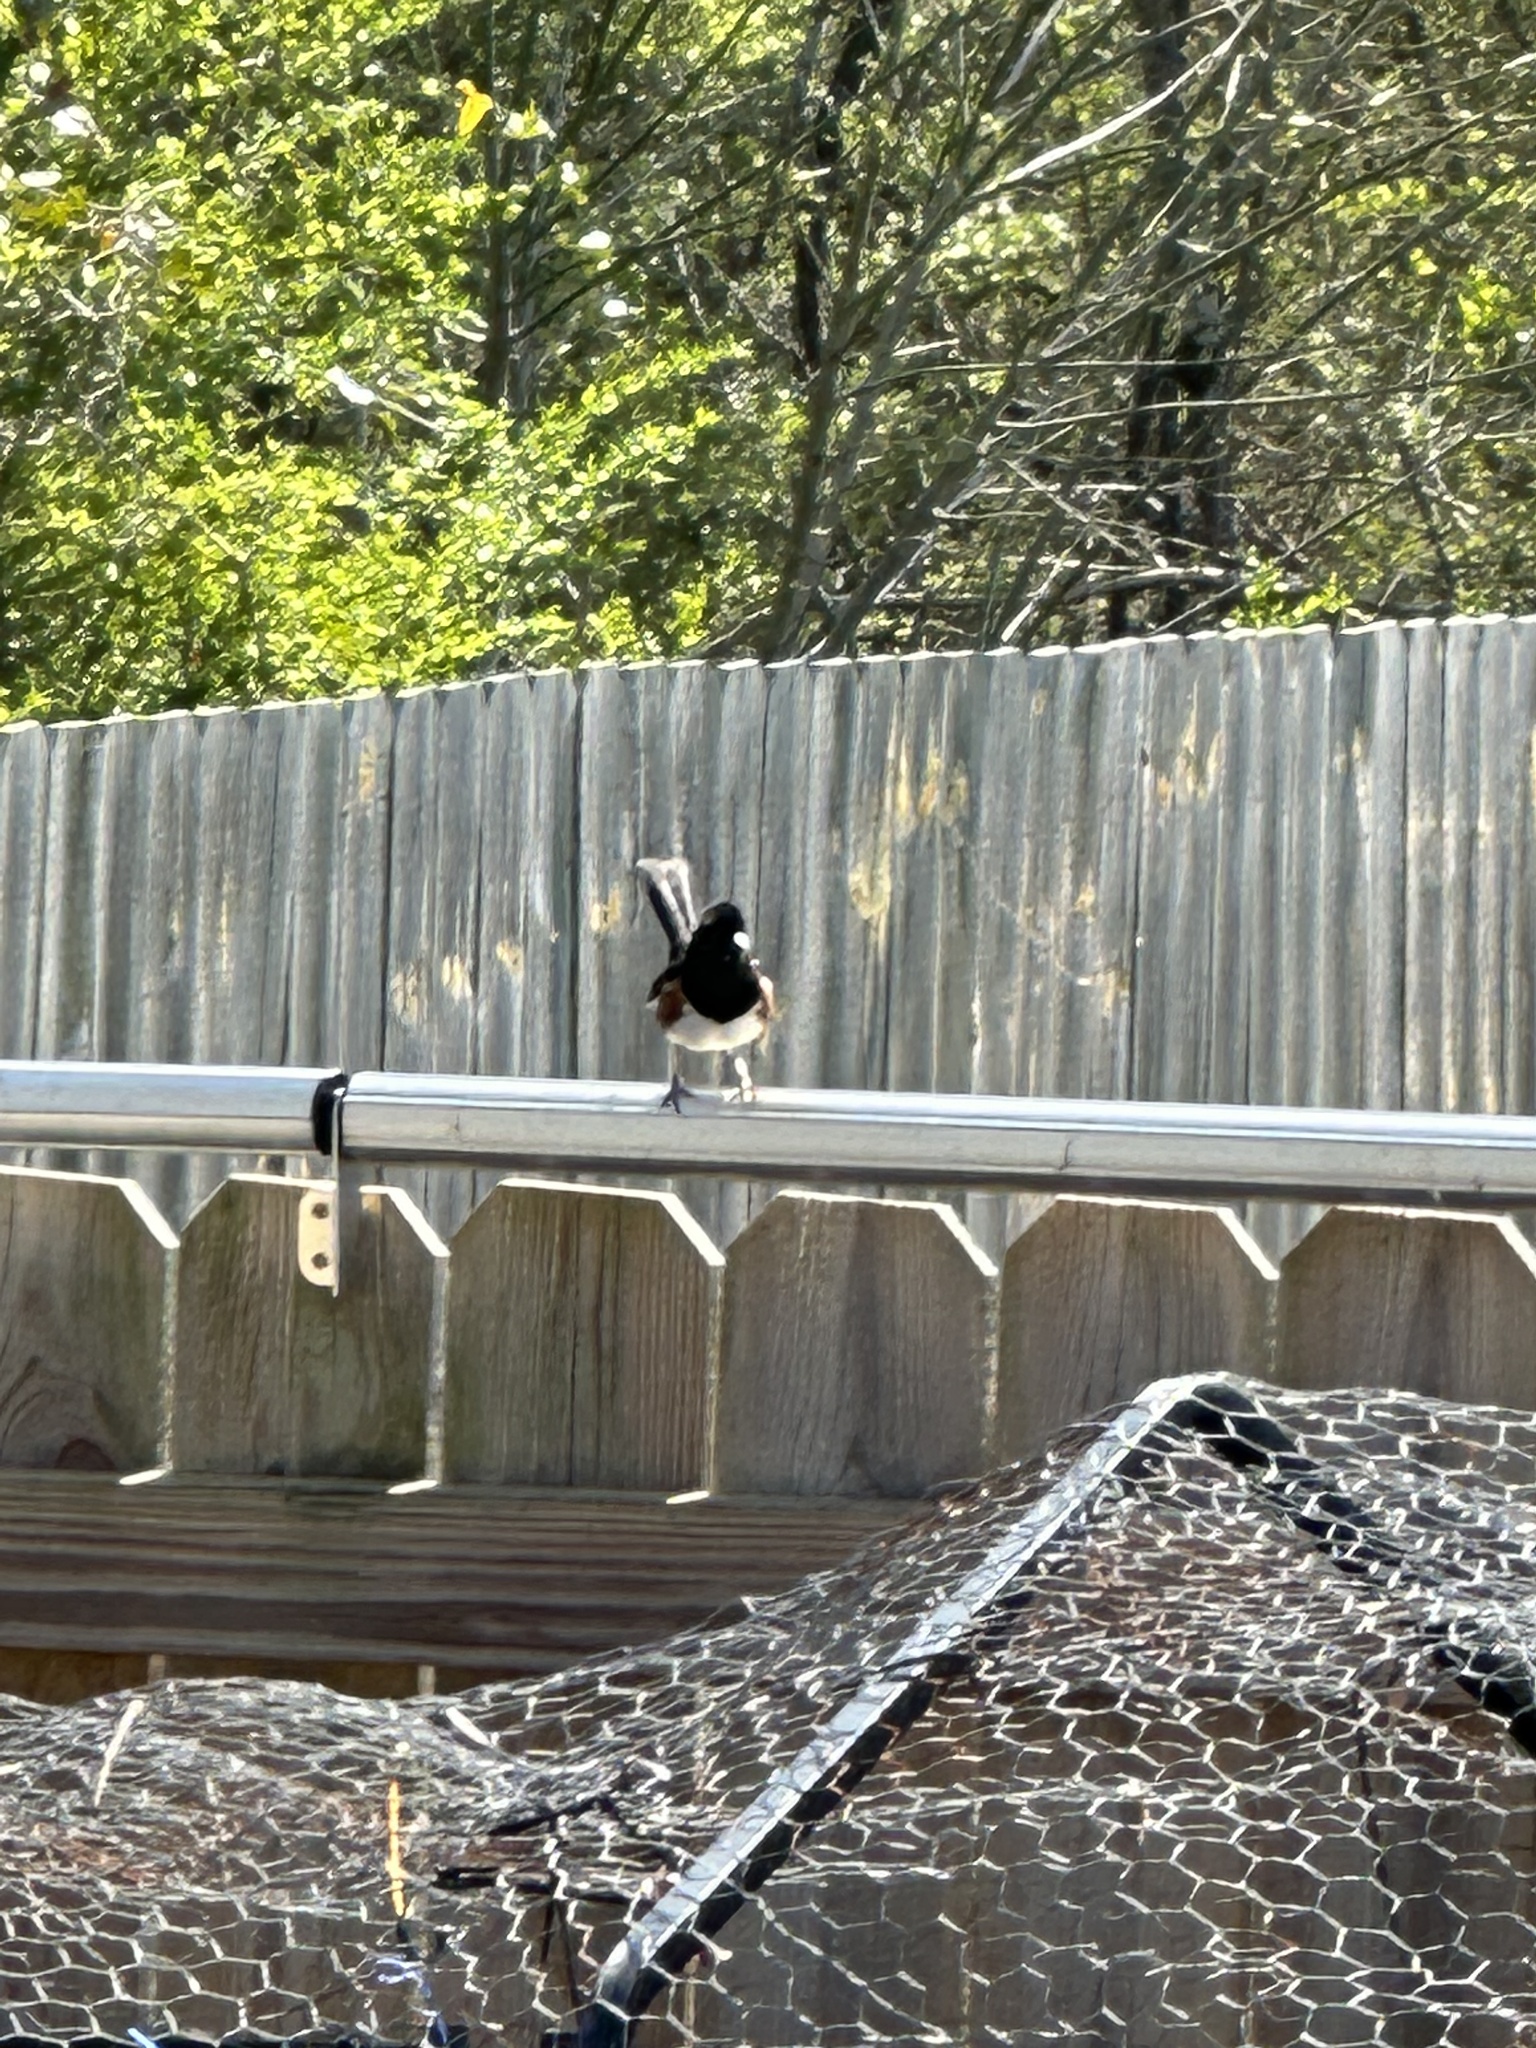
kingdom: Animalia
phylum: Chordata
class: Aves
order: Passeriformes
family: Passerellidae
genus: Pipilo
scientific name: Pipilo erythrophthalmus
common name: Eastern towhee
